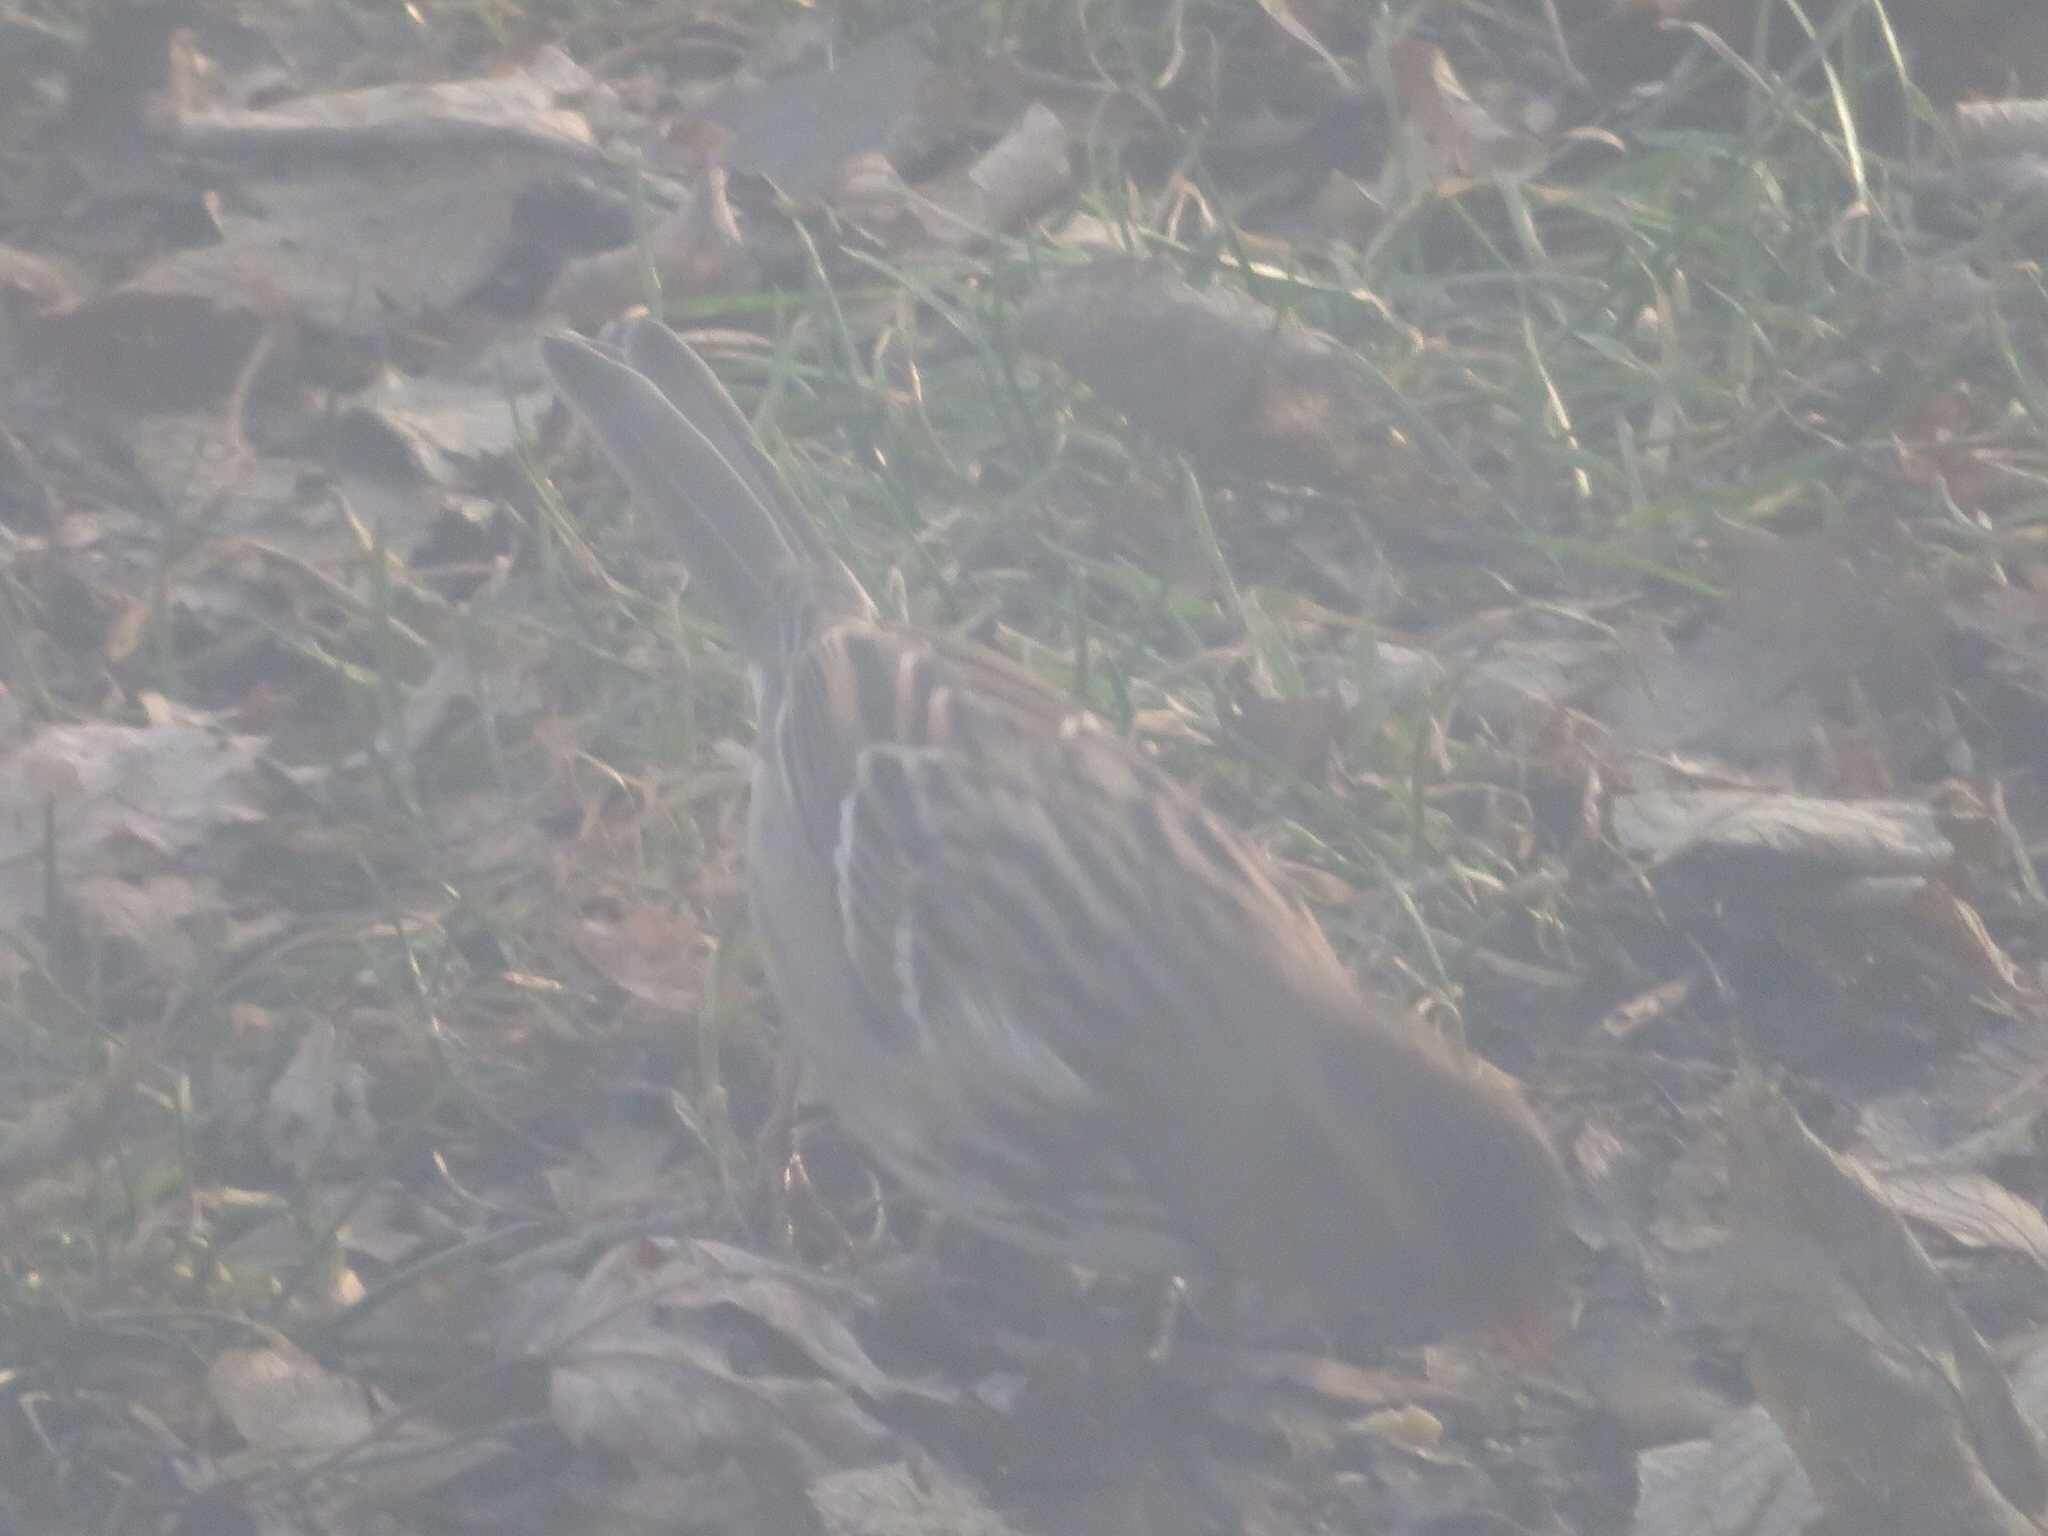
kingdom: Animalia
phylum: Chordata
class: Aves
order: Passeriformes
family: Passerellidae
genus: Zonotrichia
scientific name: Zonotrichia querula
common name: Harris's sparrow
